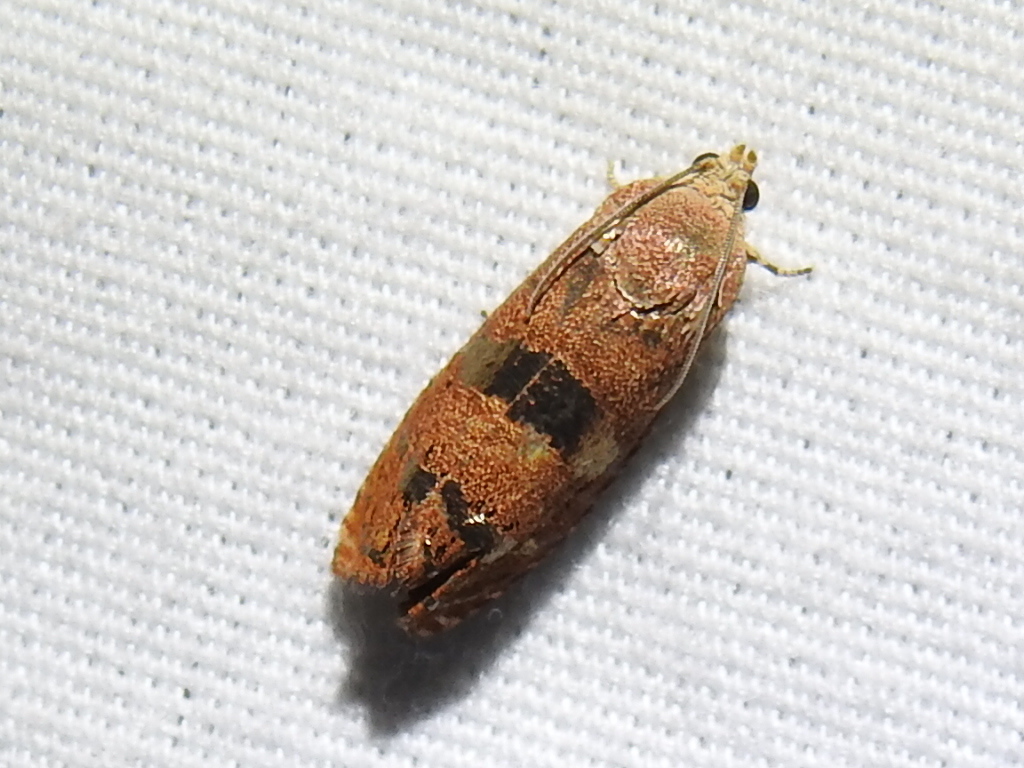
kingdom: Animalia
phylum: Arthropoda
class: Insecta
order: Lepidoptera
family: Tortricidae
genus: Cydia
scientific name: Cydia latiferreana
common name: Filbertworm moth
